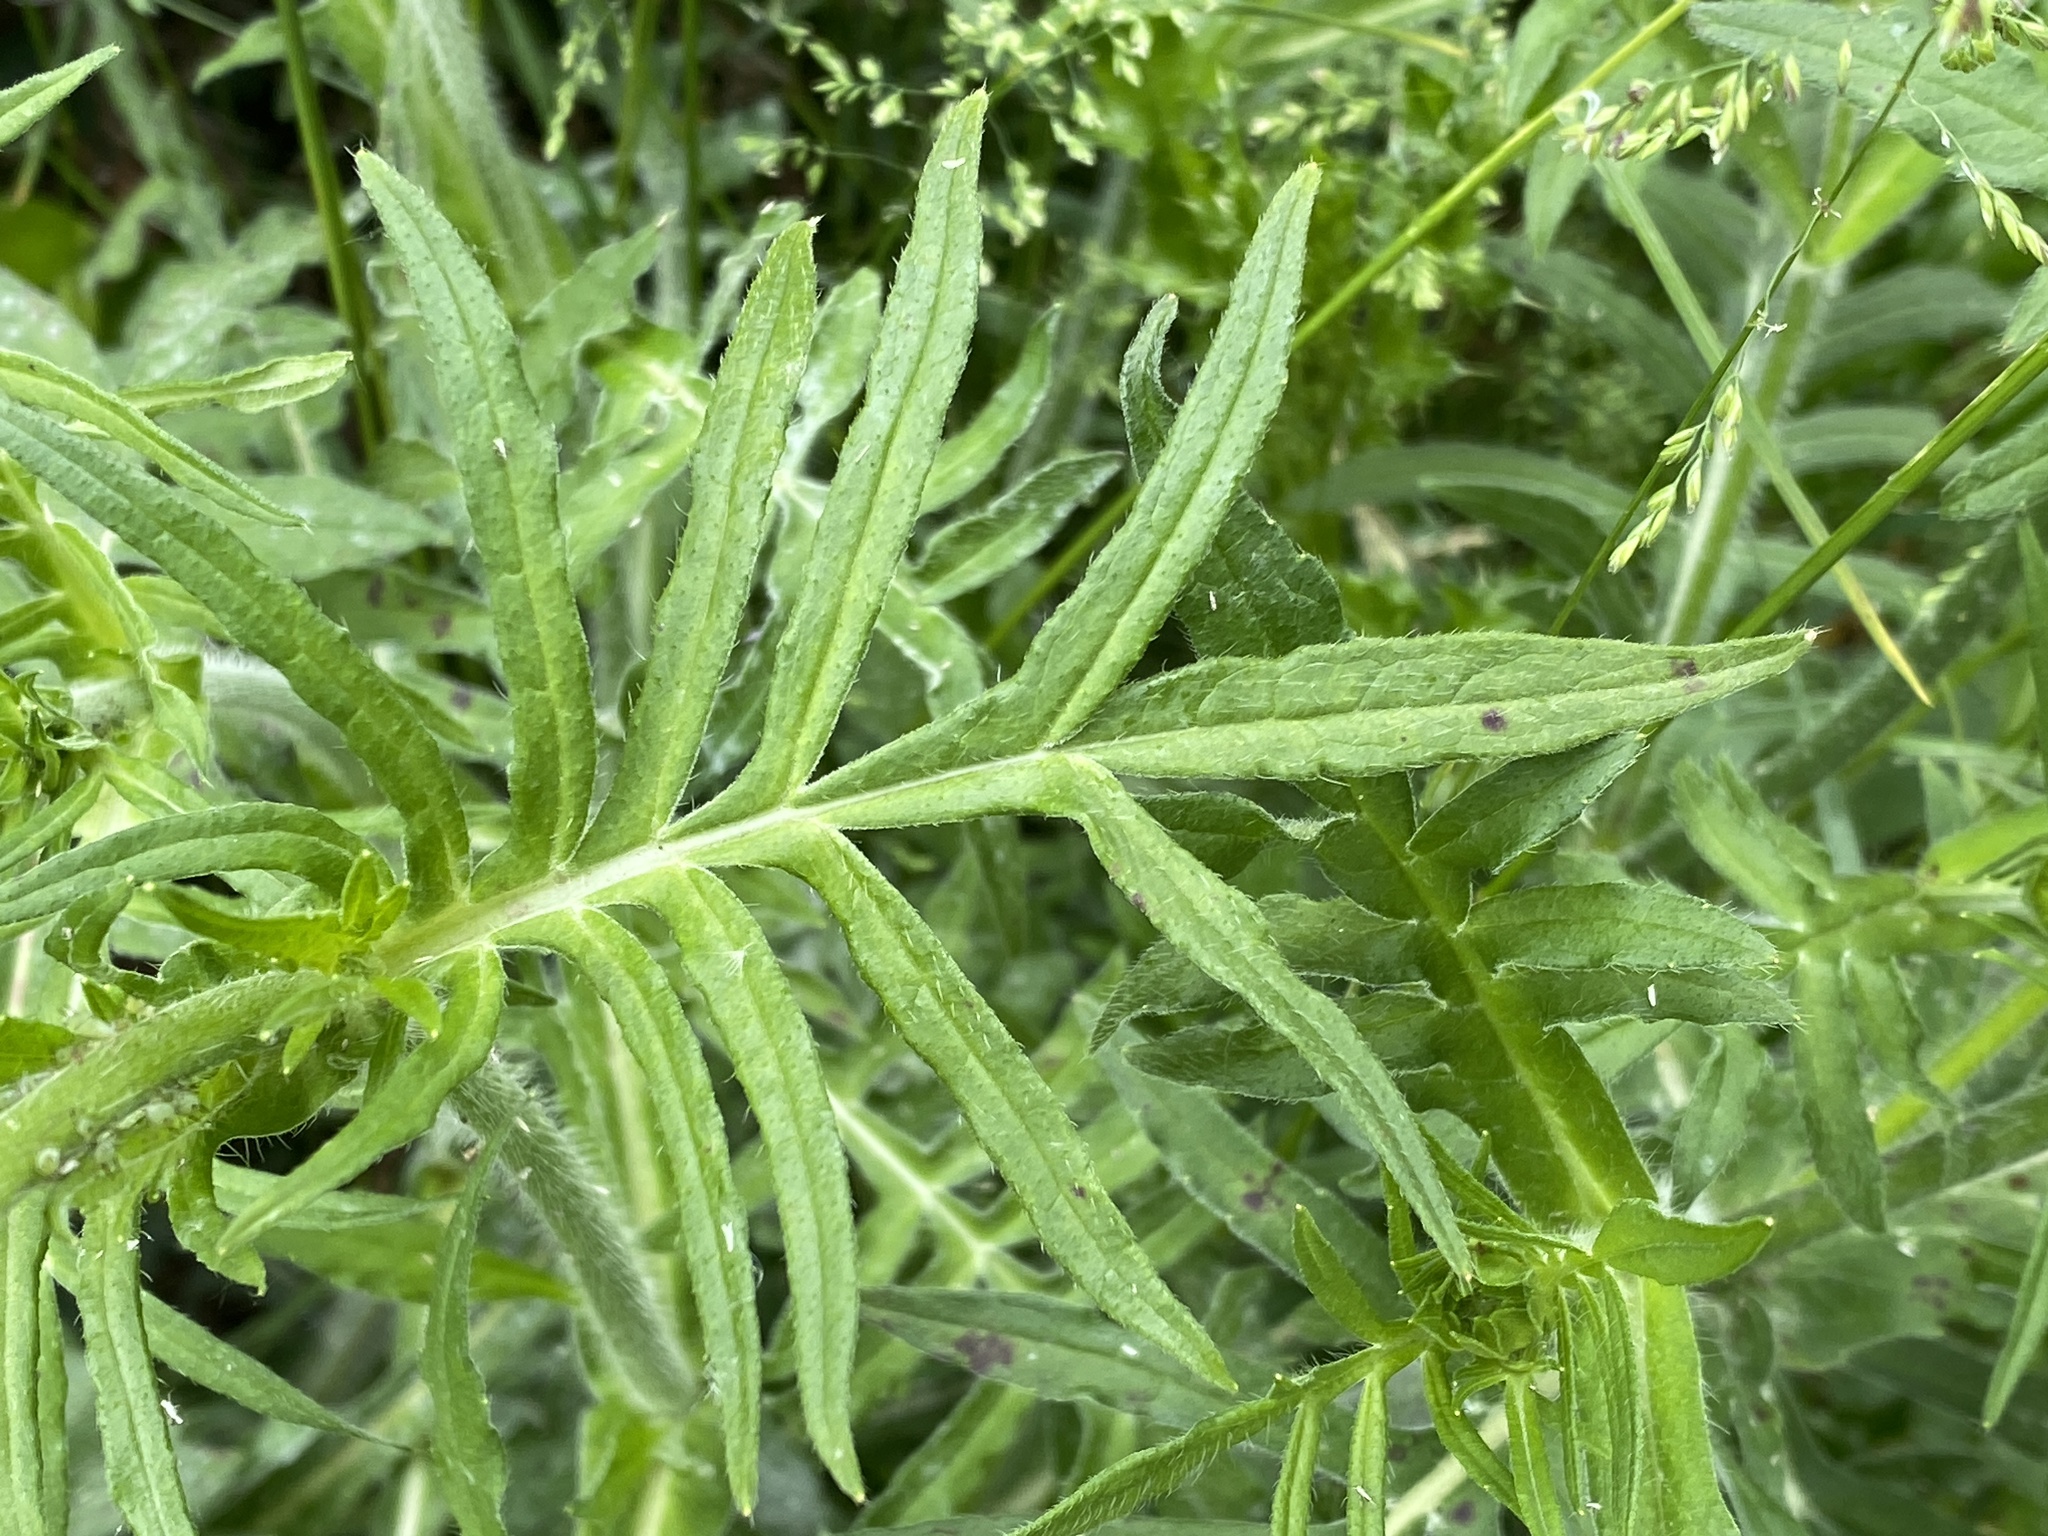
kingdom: Plantae
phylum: Tracheophyta
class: Magnoliopsida
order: Dipsacales
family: Caprifoliaceae
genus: Knautia
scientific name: Knautia arvensis
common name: Field scabiosa
